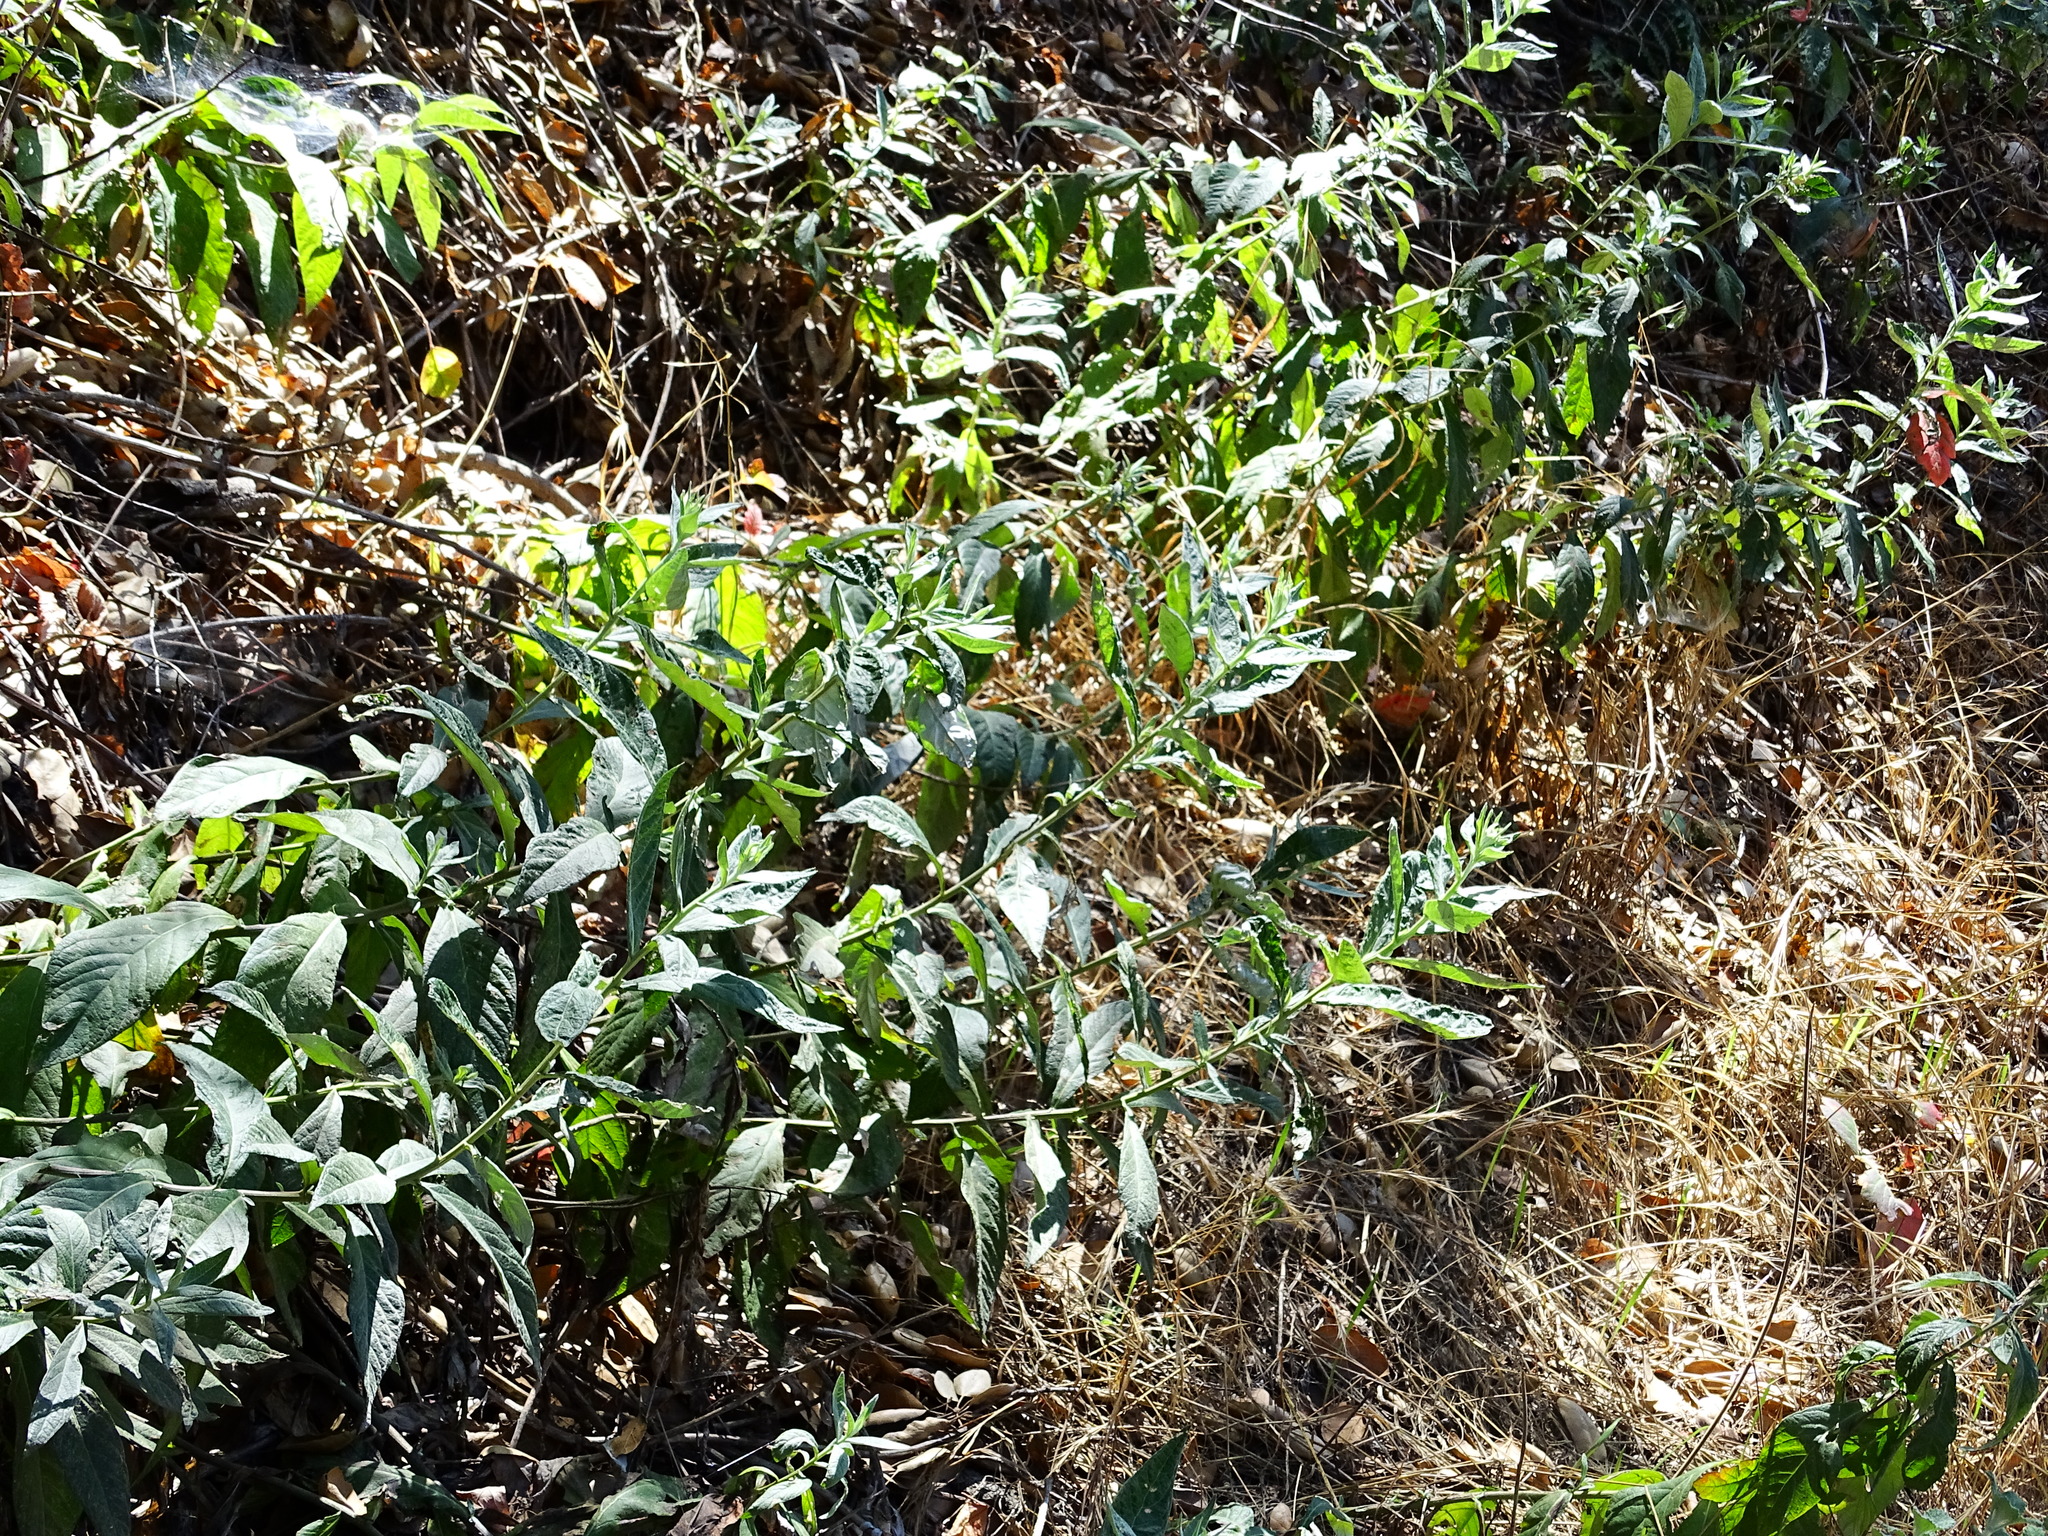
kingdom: Plantae
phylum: Tracheophyta
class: Magnoliopsida
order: Asterales
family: Asteraceae
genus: Artemisia
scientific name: Artemisia douglasiana
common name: Northwest mugwort
